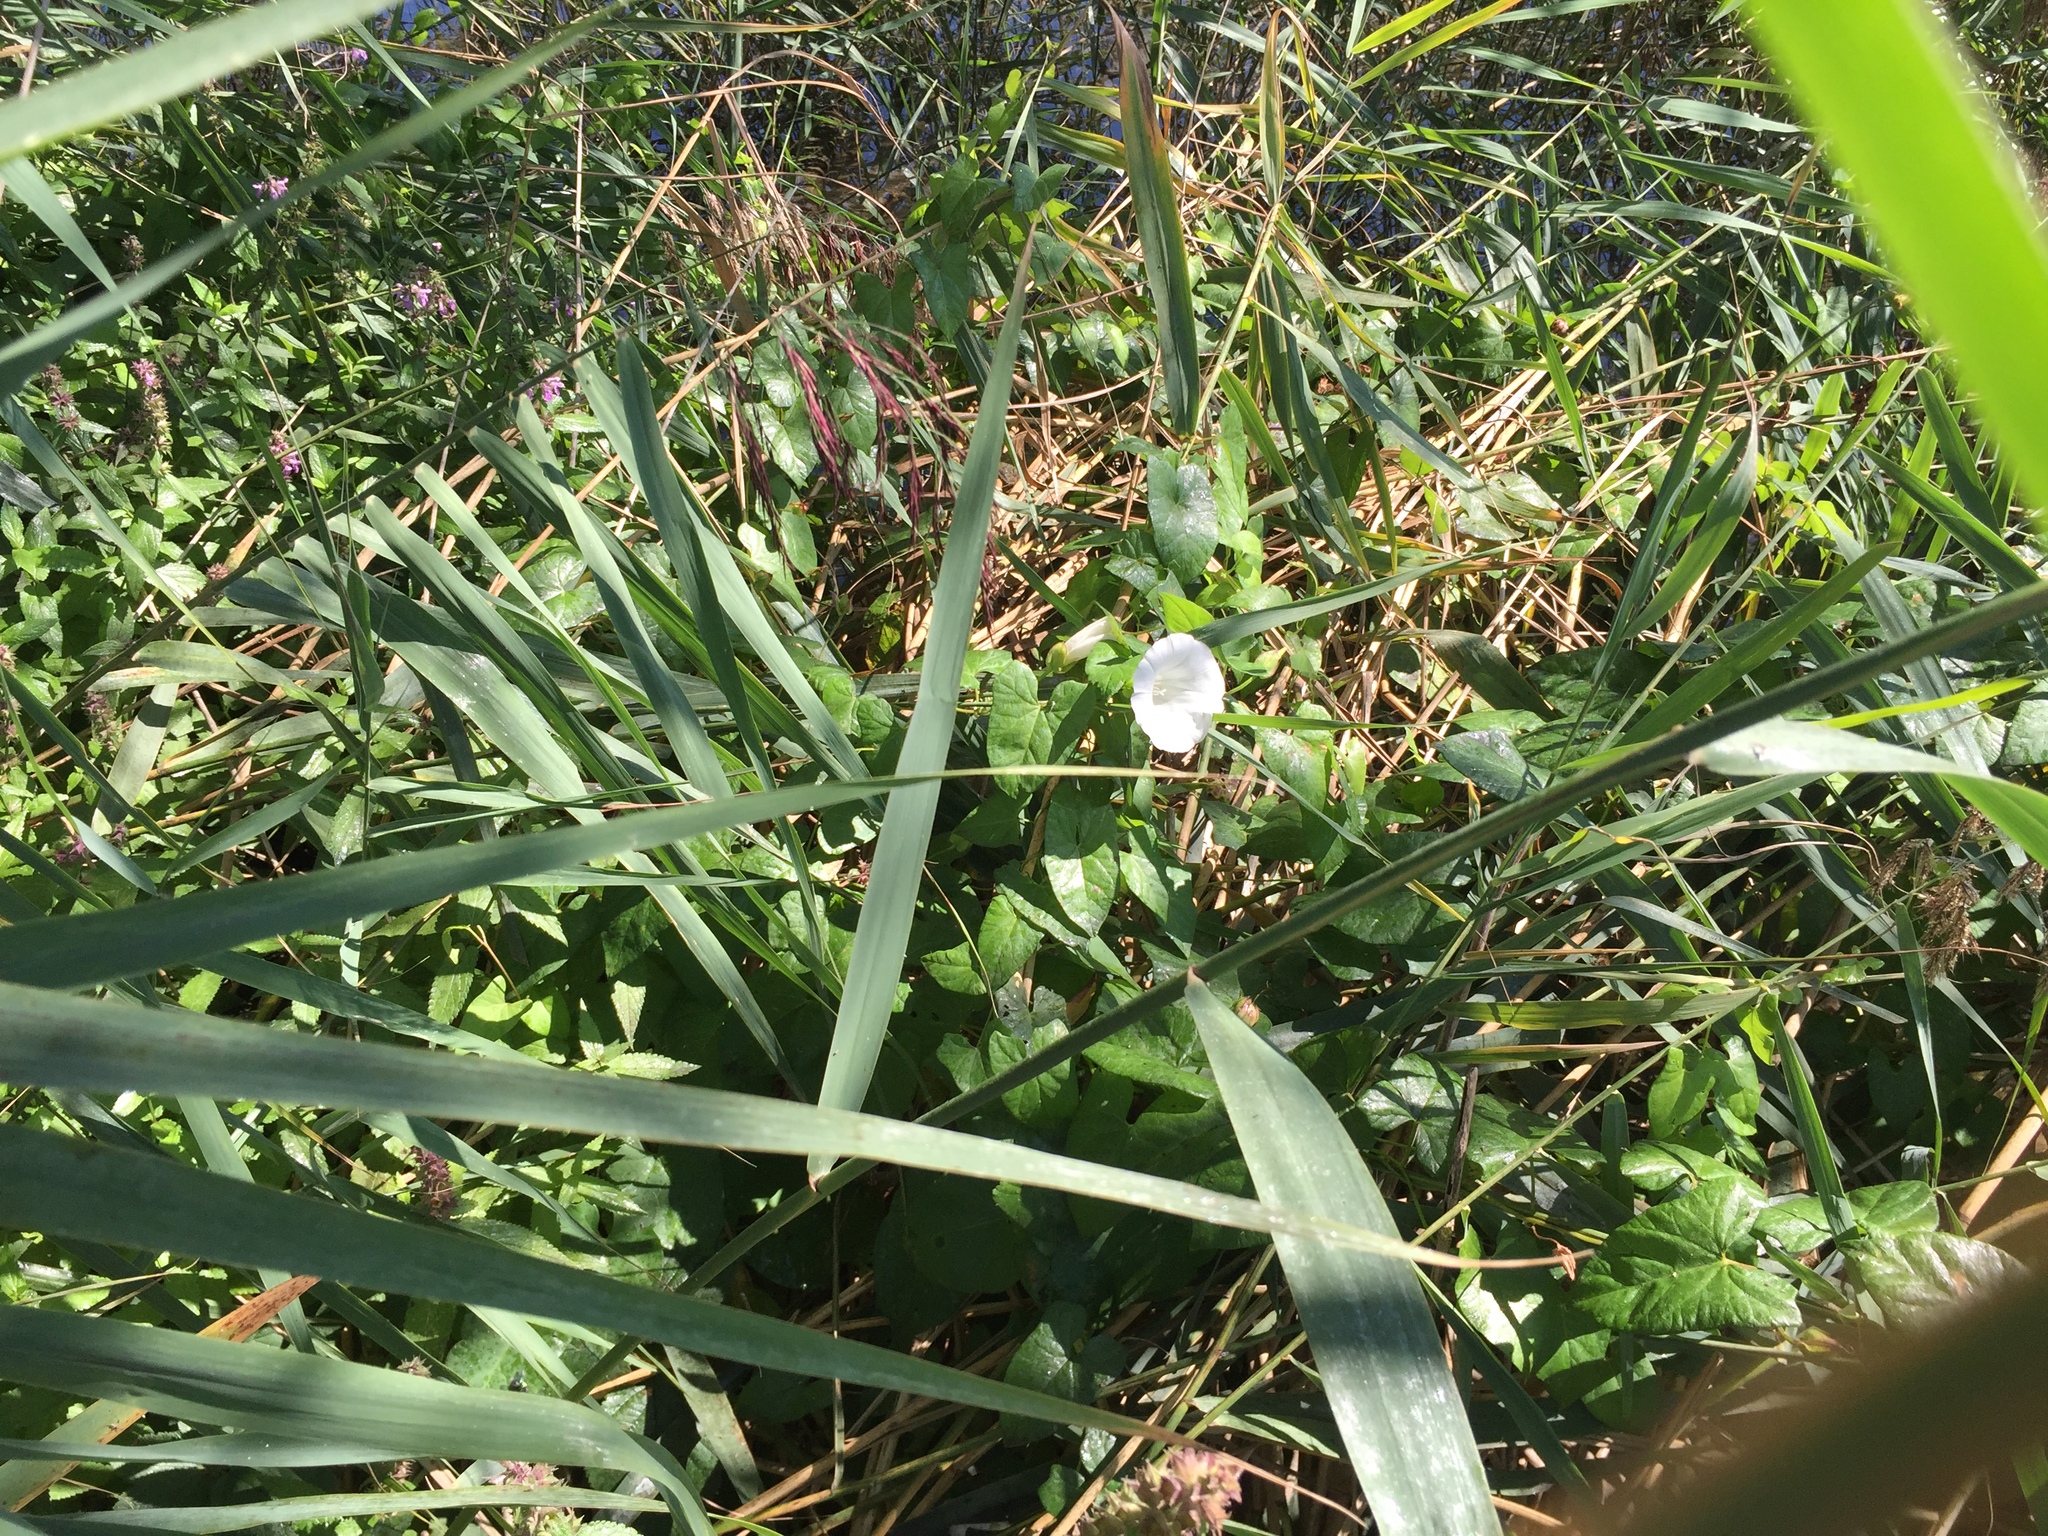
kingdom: Plantae
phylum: Tracheophyta
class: Magnoliopsida
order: Solanales
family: Convolvulaceae
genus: Calystegia
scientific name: Calystegia sepium
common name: Hedge bindweed
